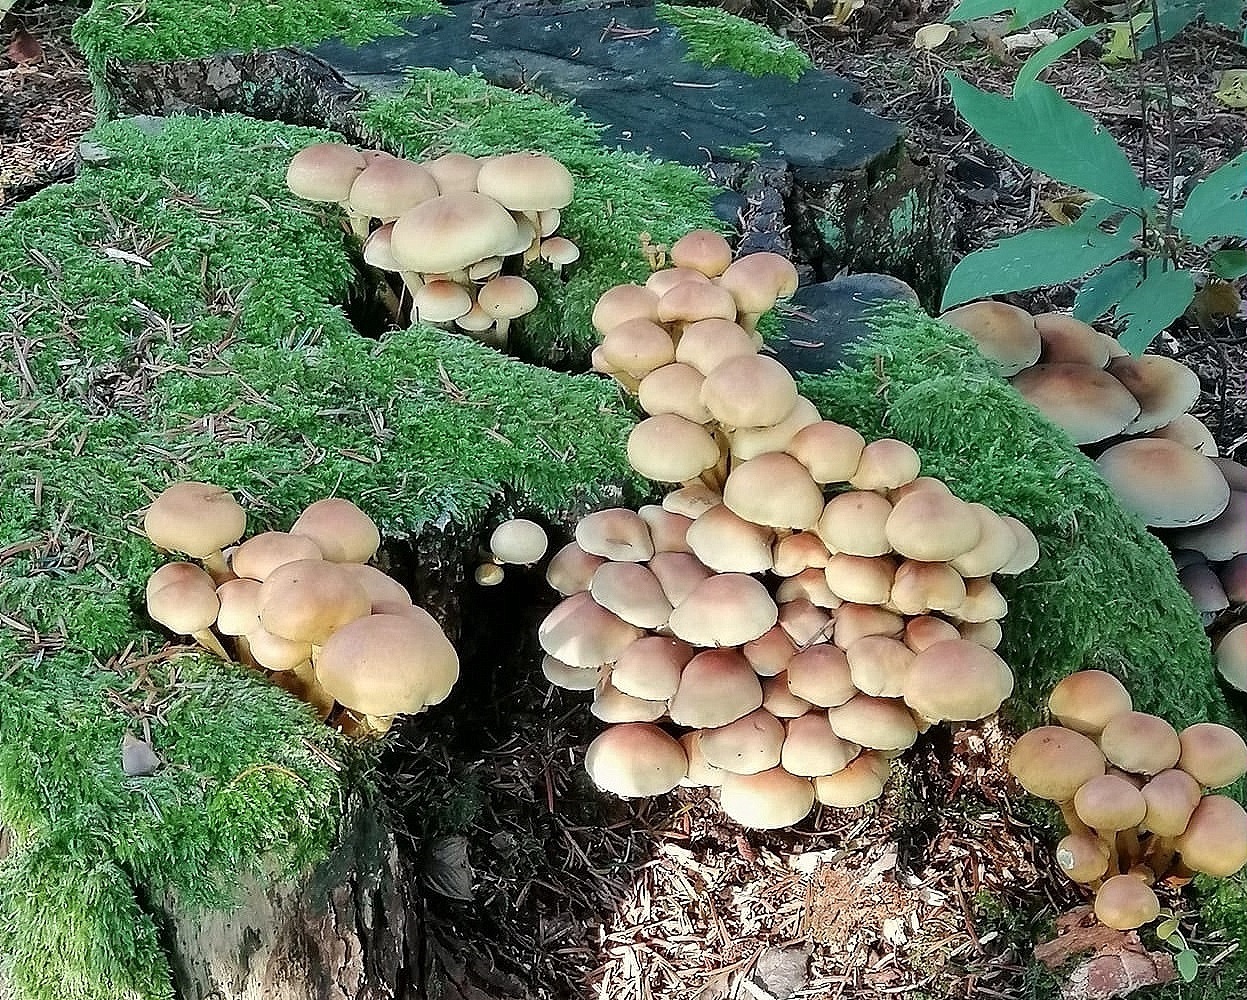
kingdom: Fungi
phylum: Basidiomycota
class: Agaricomycetes
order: Agaricales
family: Strophariaceae
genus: Hypholoma
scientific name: Hypholoma fasciculare
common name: Sulphur tuft
